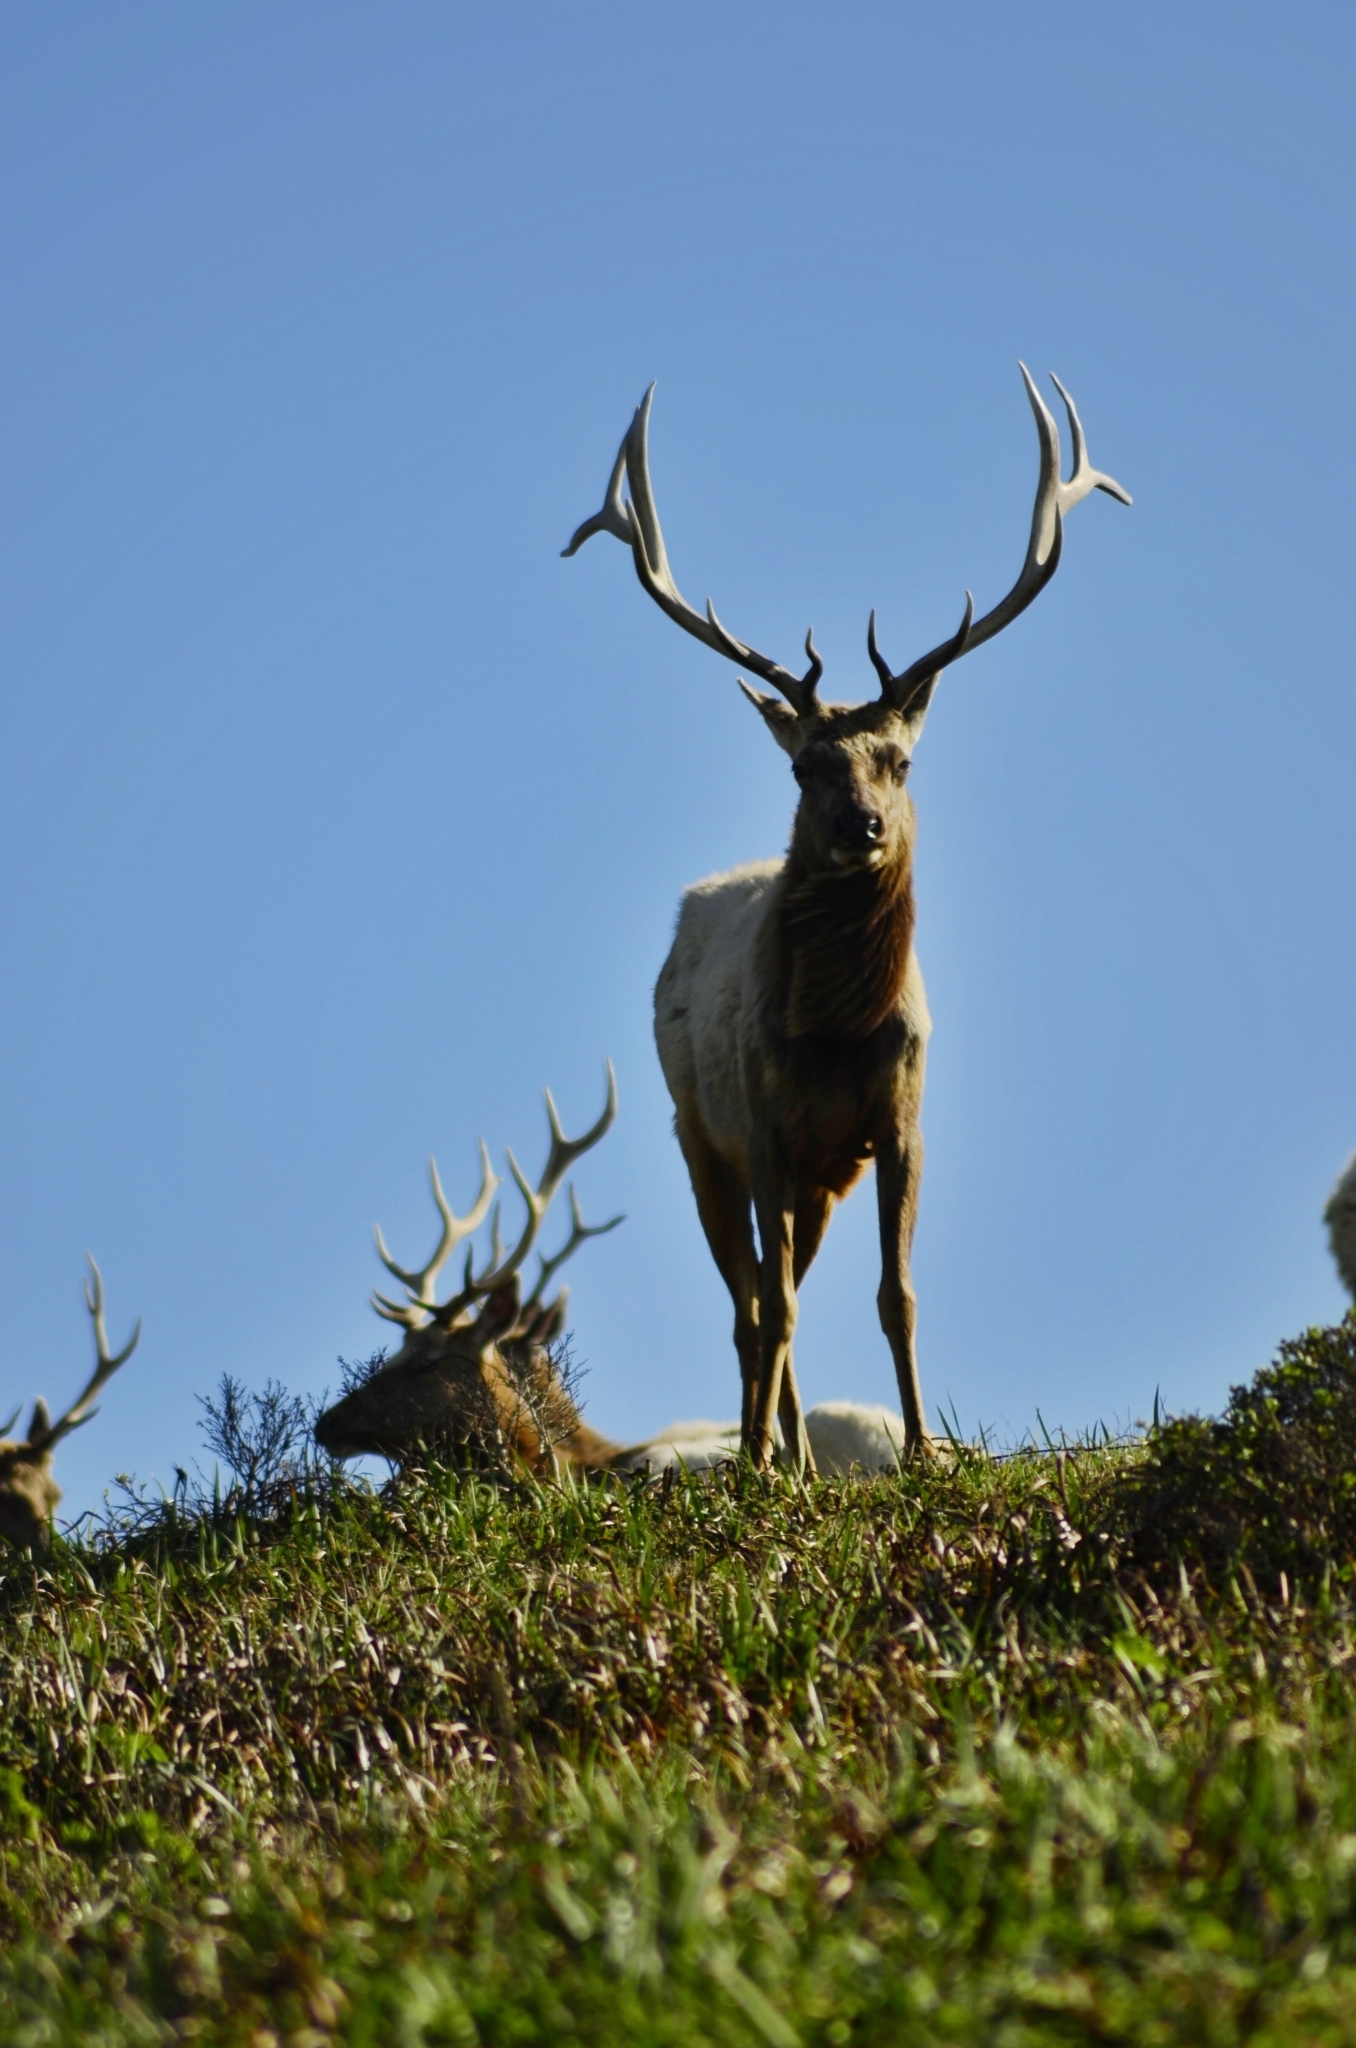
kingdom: Animalia
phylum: Chordata
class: Mammalia
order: Artiodactyla
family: Cervidae
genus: Cervus
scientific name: Cervus elaphus
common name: Red deer
